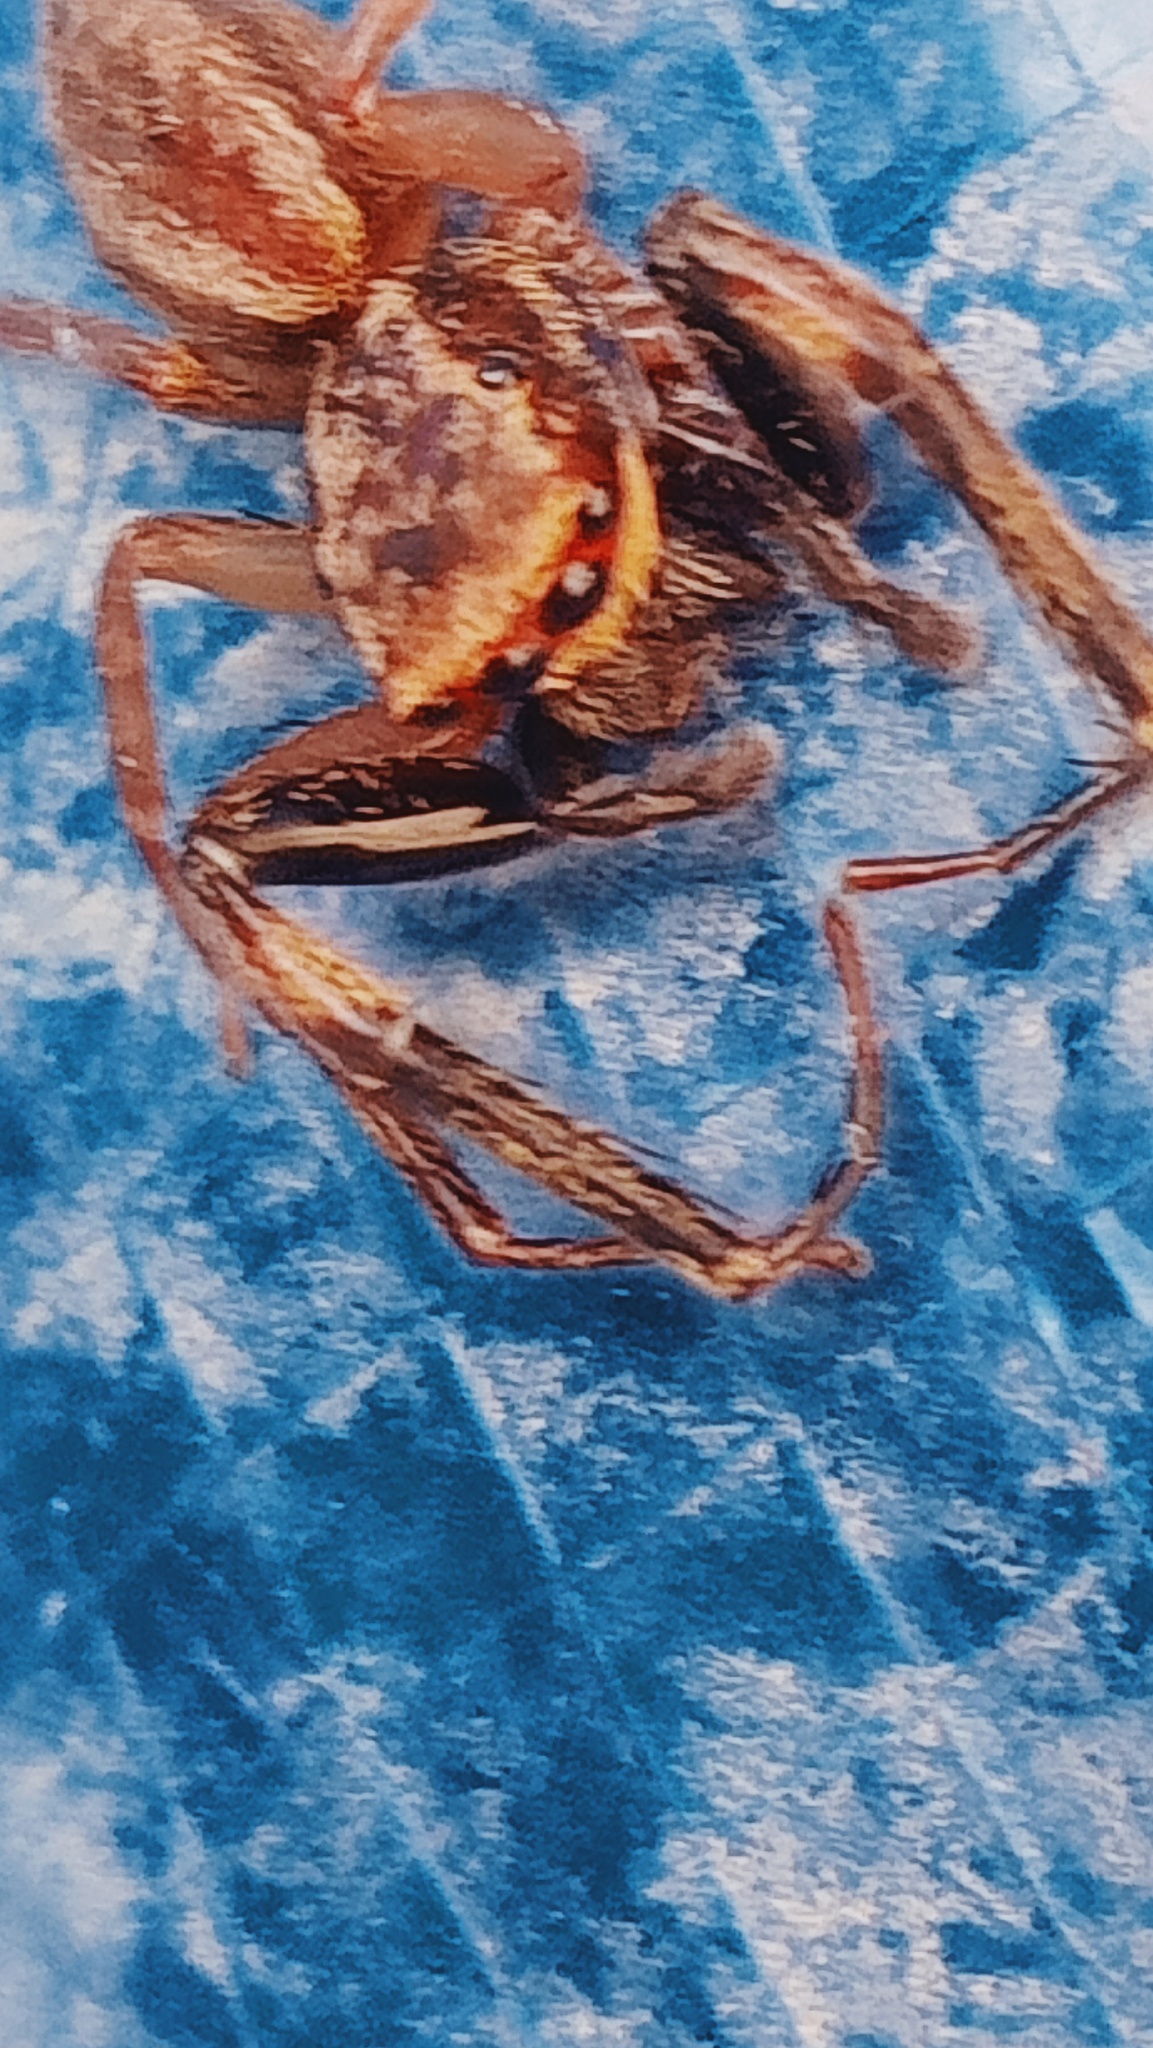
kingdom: Animalia
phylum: Arthropoda
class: Arachnida
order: Araneae
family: Salticidae
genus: Trite
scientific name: Trite auricoma
